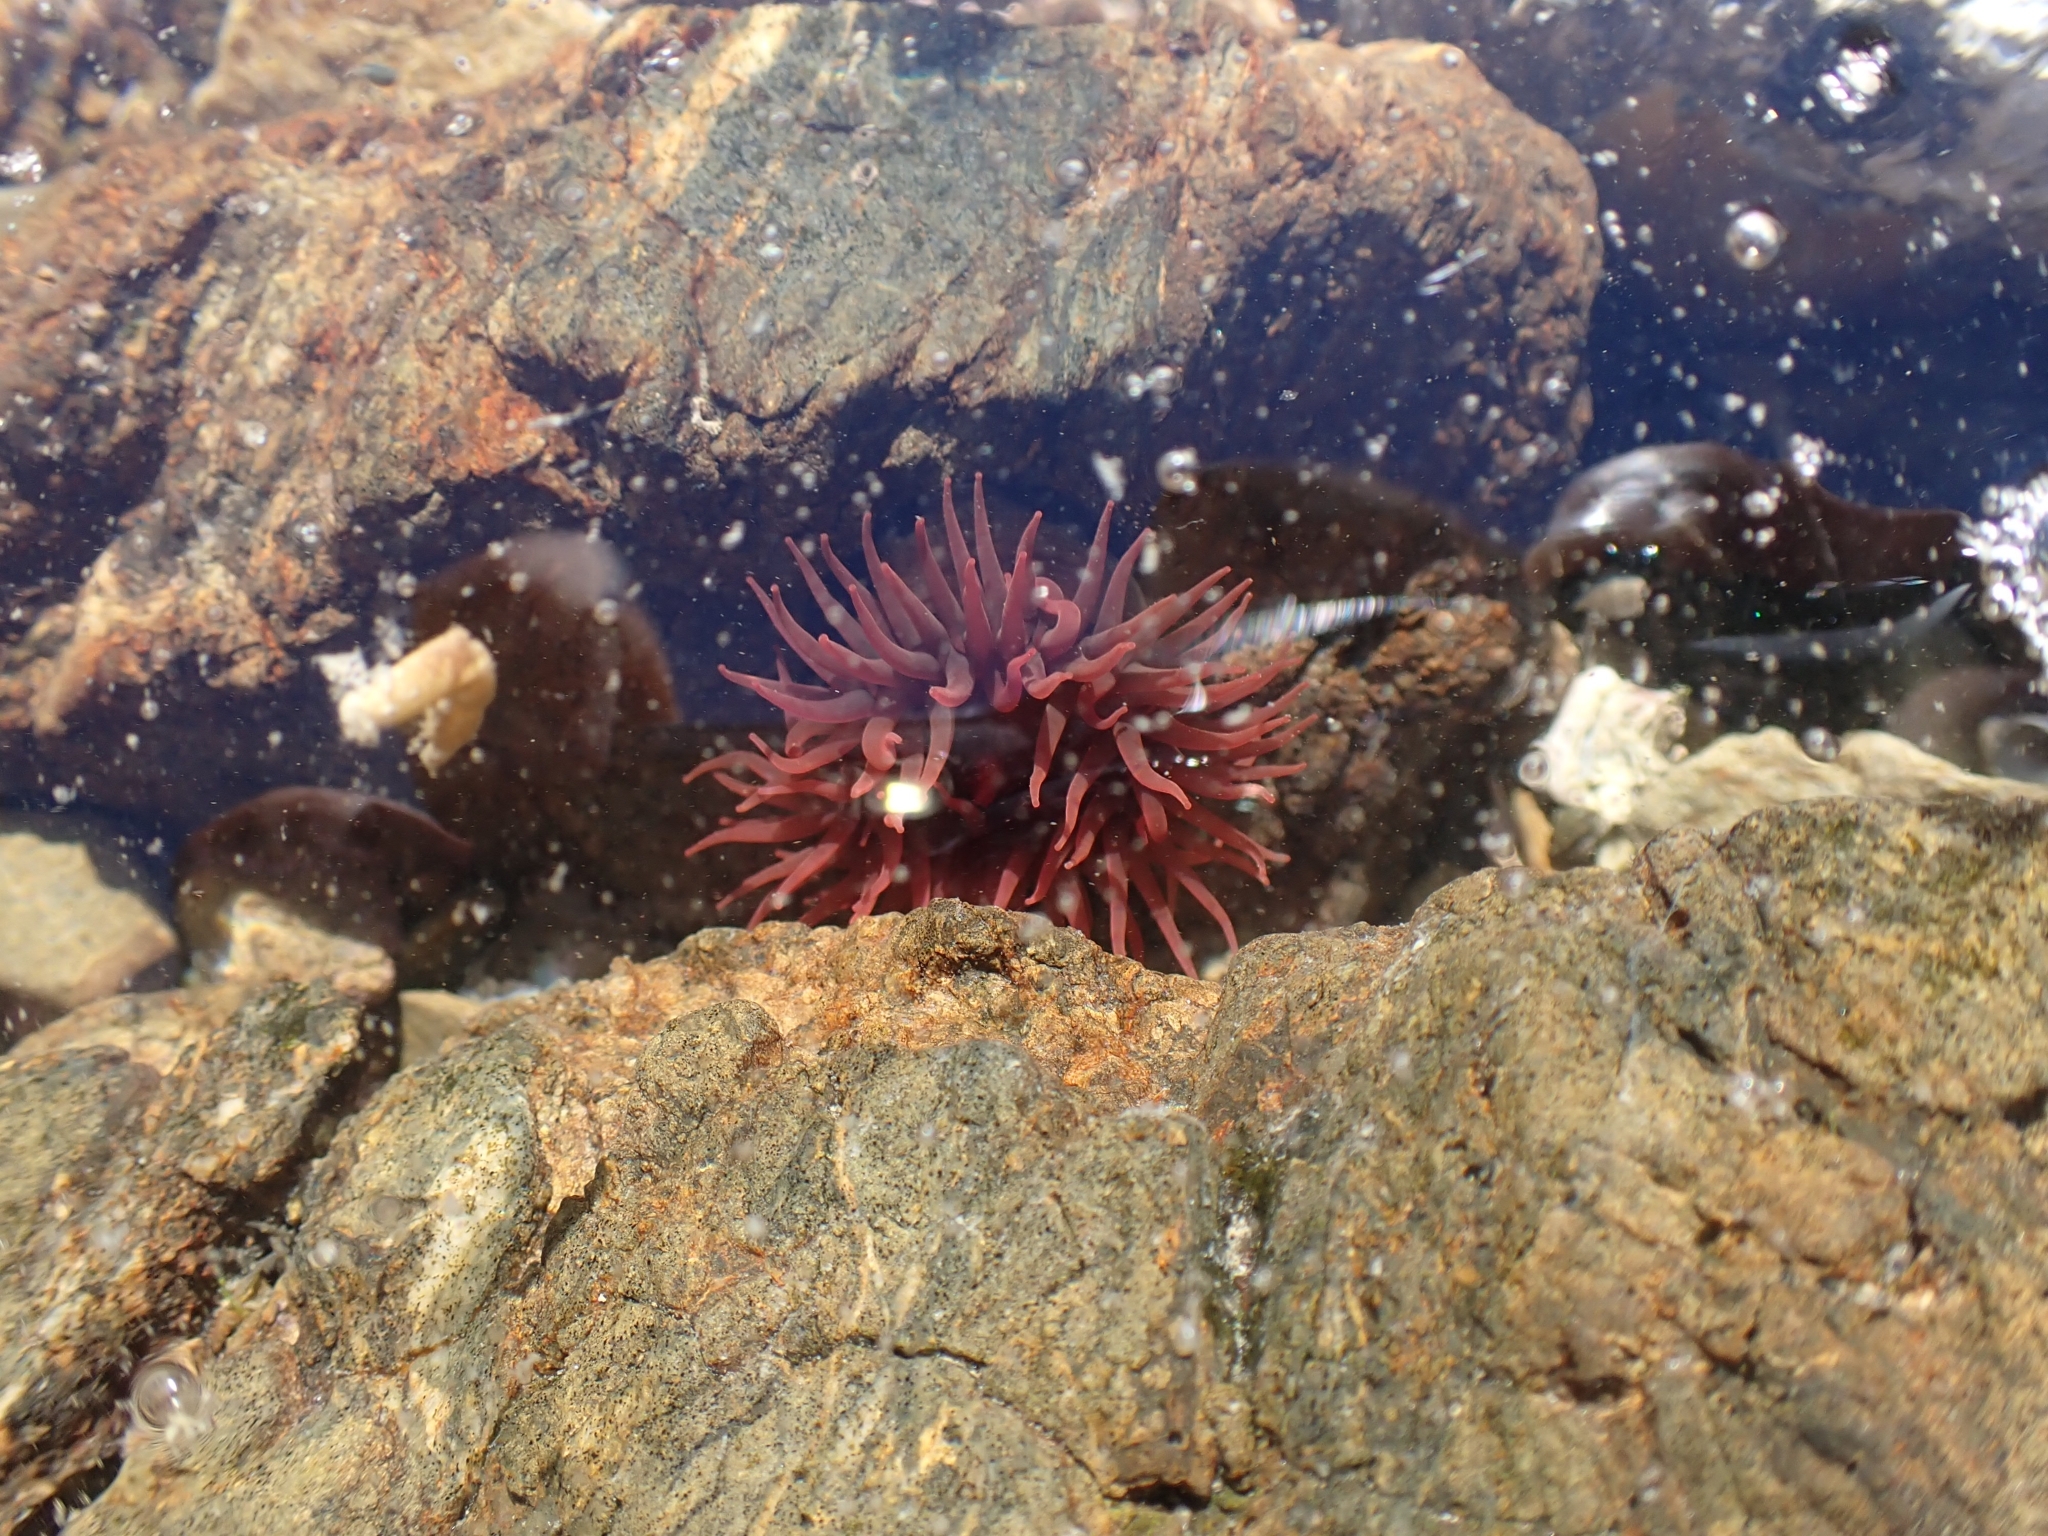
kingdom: Animalia
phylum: Cnidaria
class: Anthozoa
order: Actiniaria
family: Actiniidae
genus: Actinia
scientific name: Actinia tenebrosa
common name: Waratah anemone
